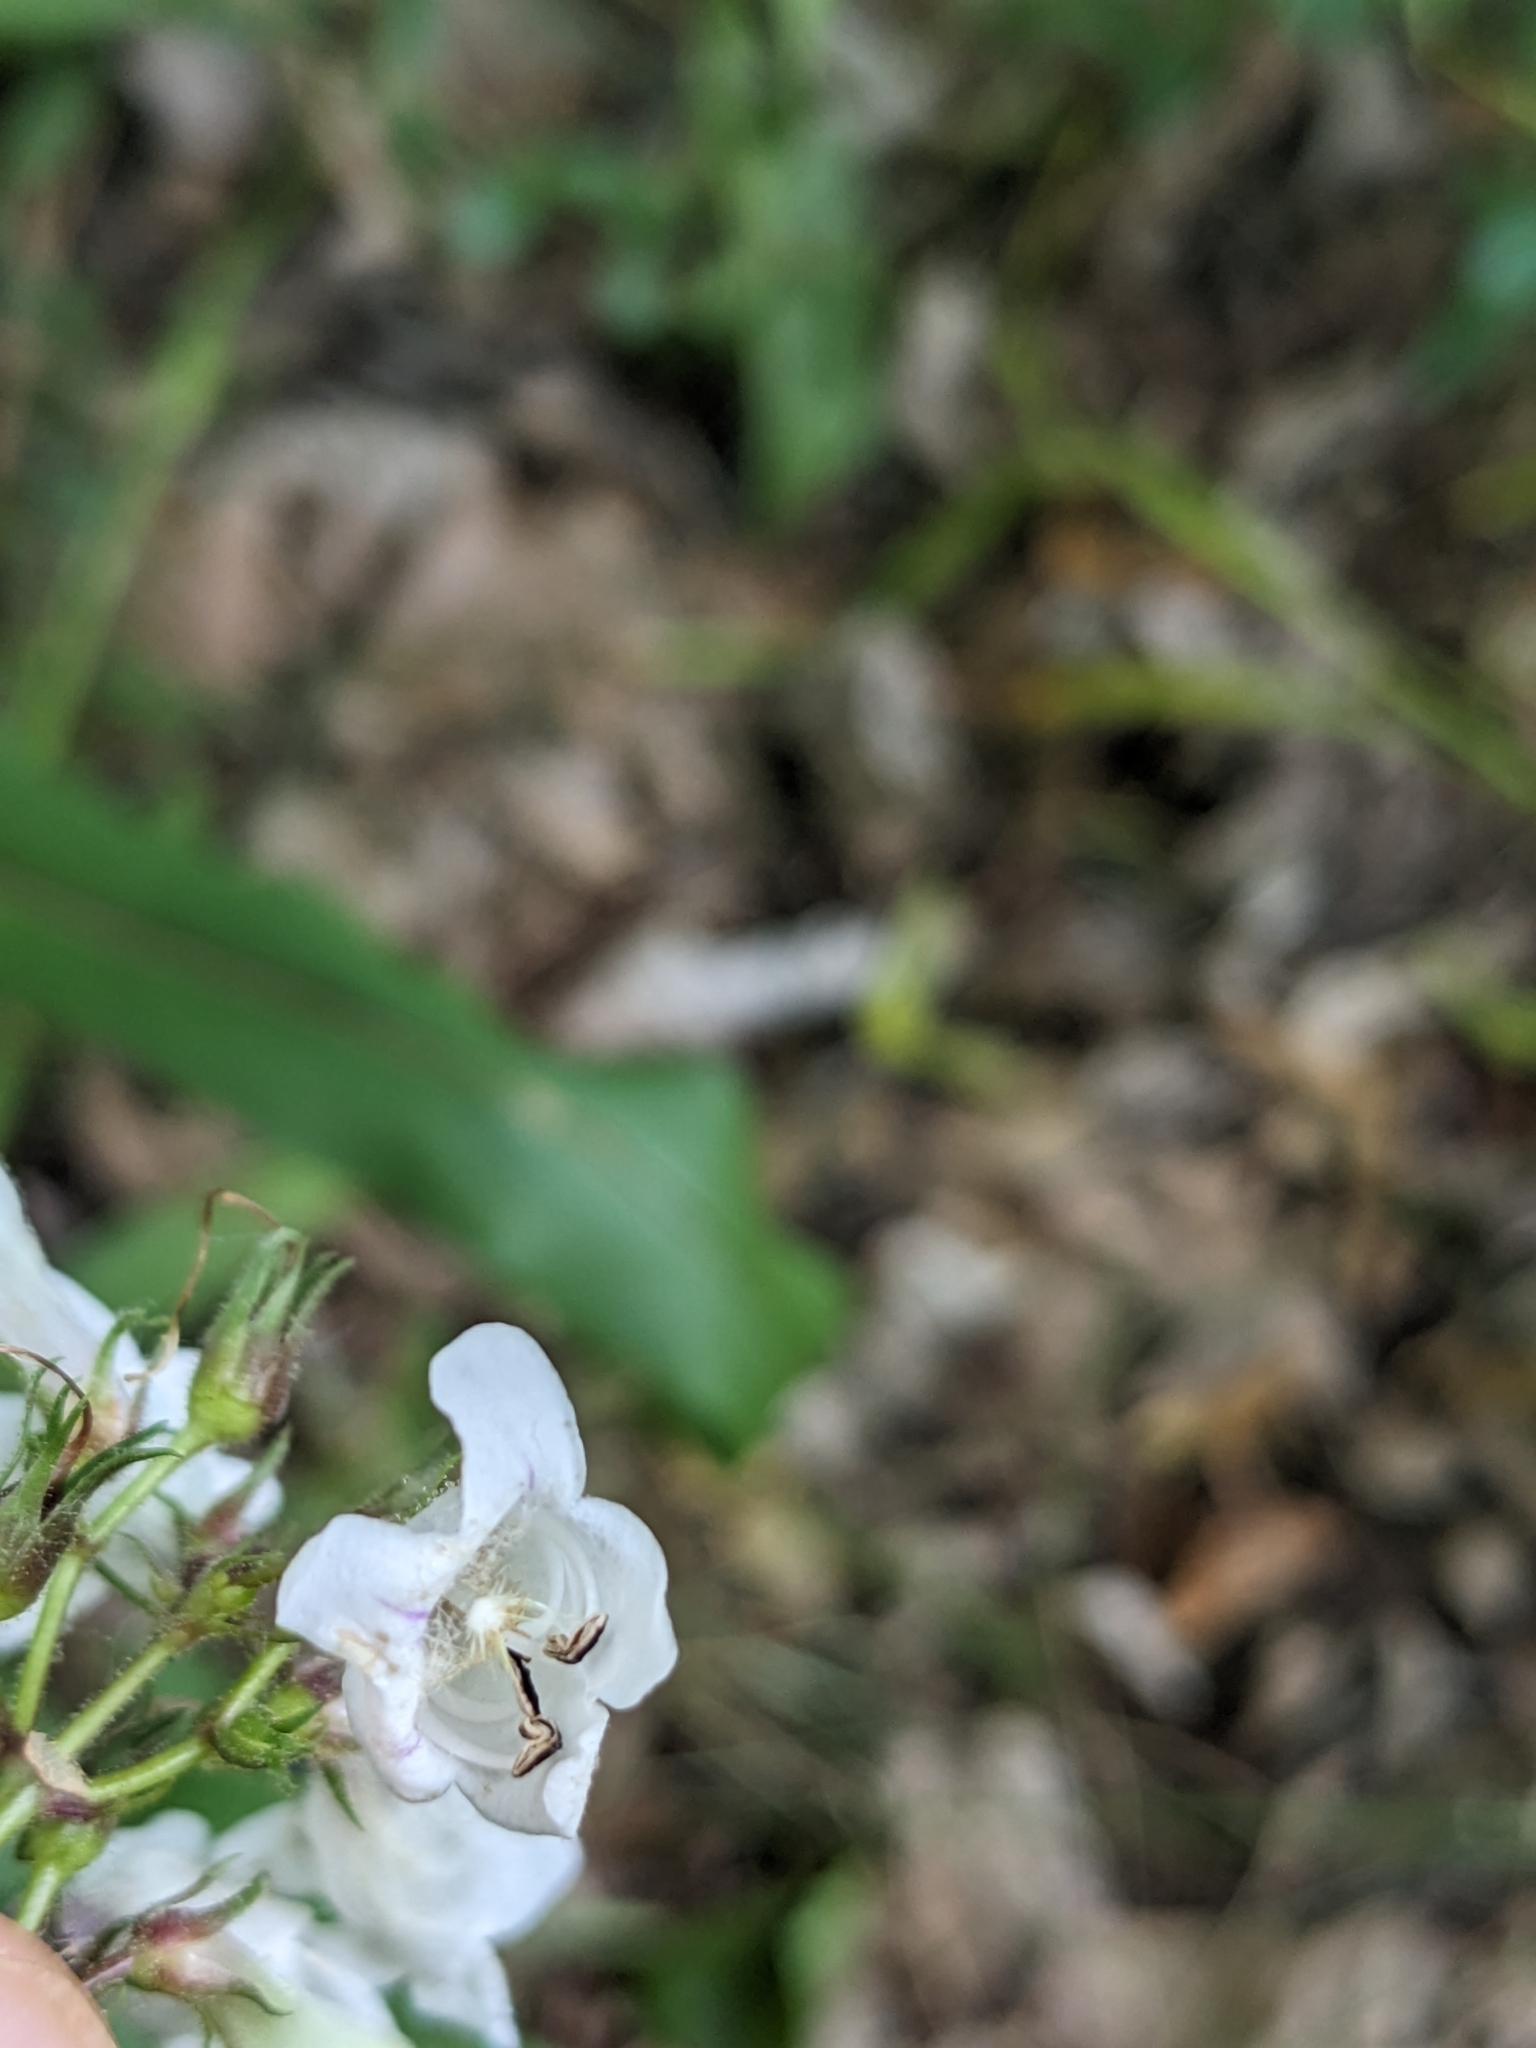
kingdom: Plantae
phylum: Tracheophyta
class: Magnoliopsida
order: Lamiales
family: Plantaginaceae
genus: Penstemon
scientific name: Penstemon digitalis
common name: Foxglove beardtongue
